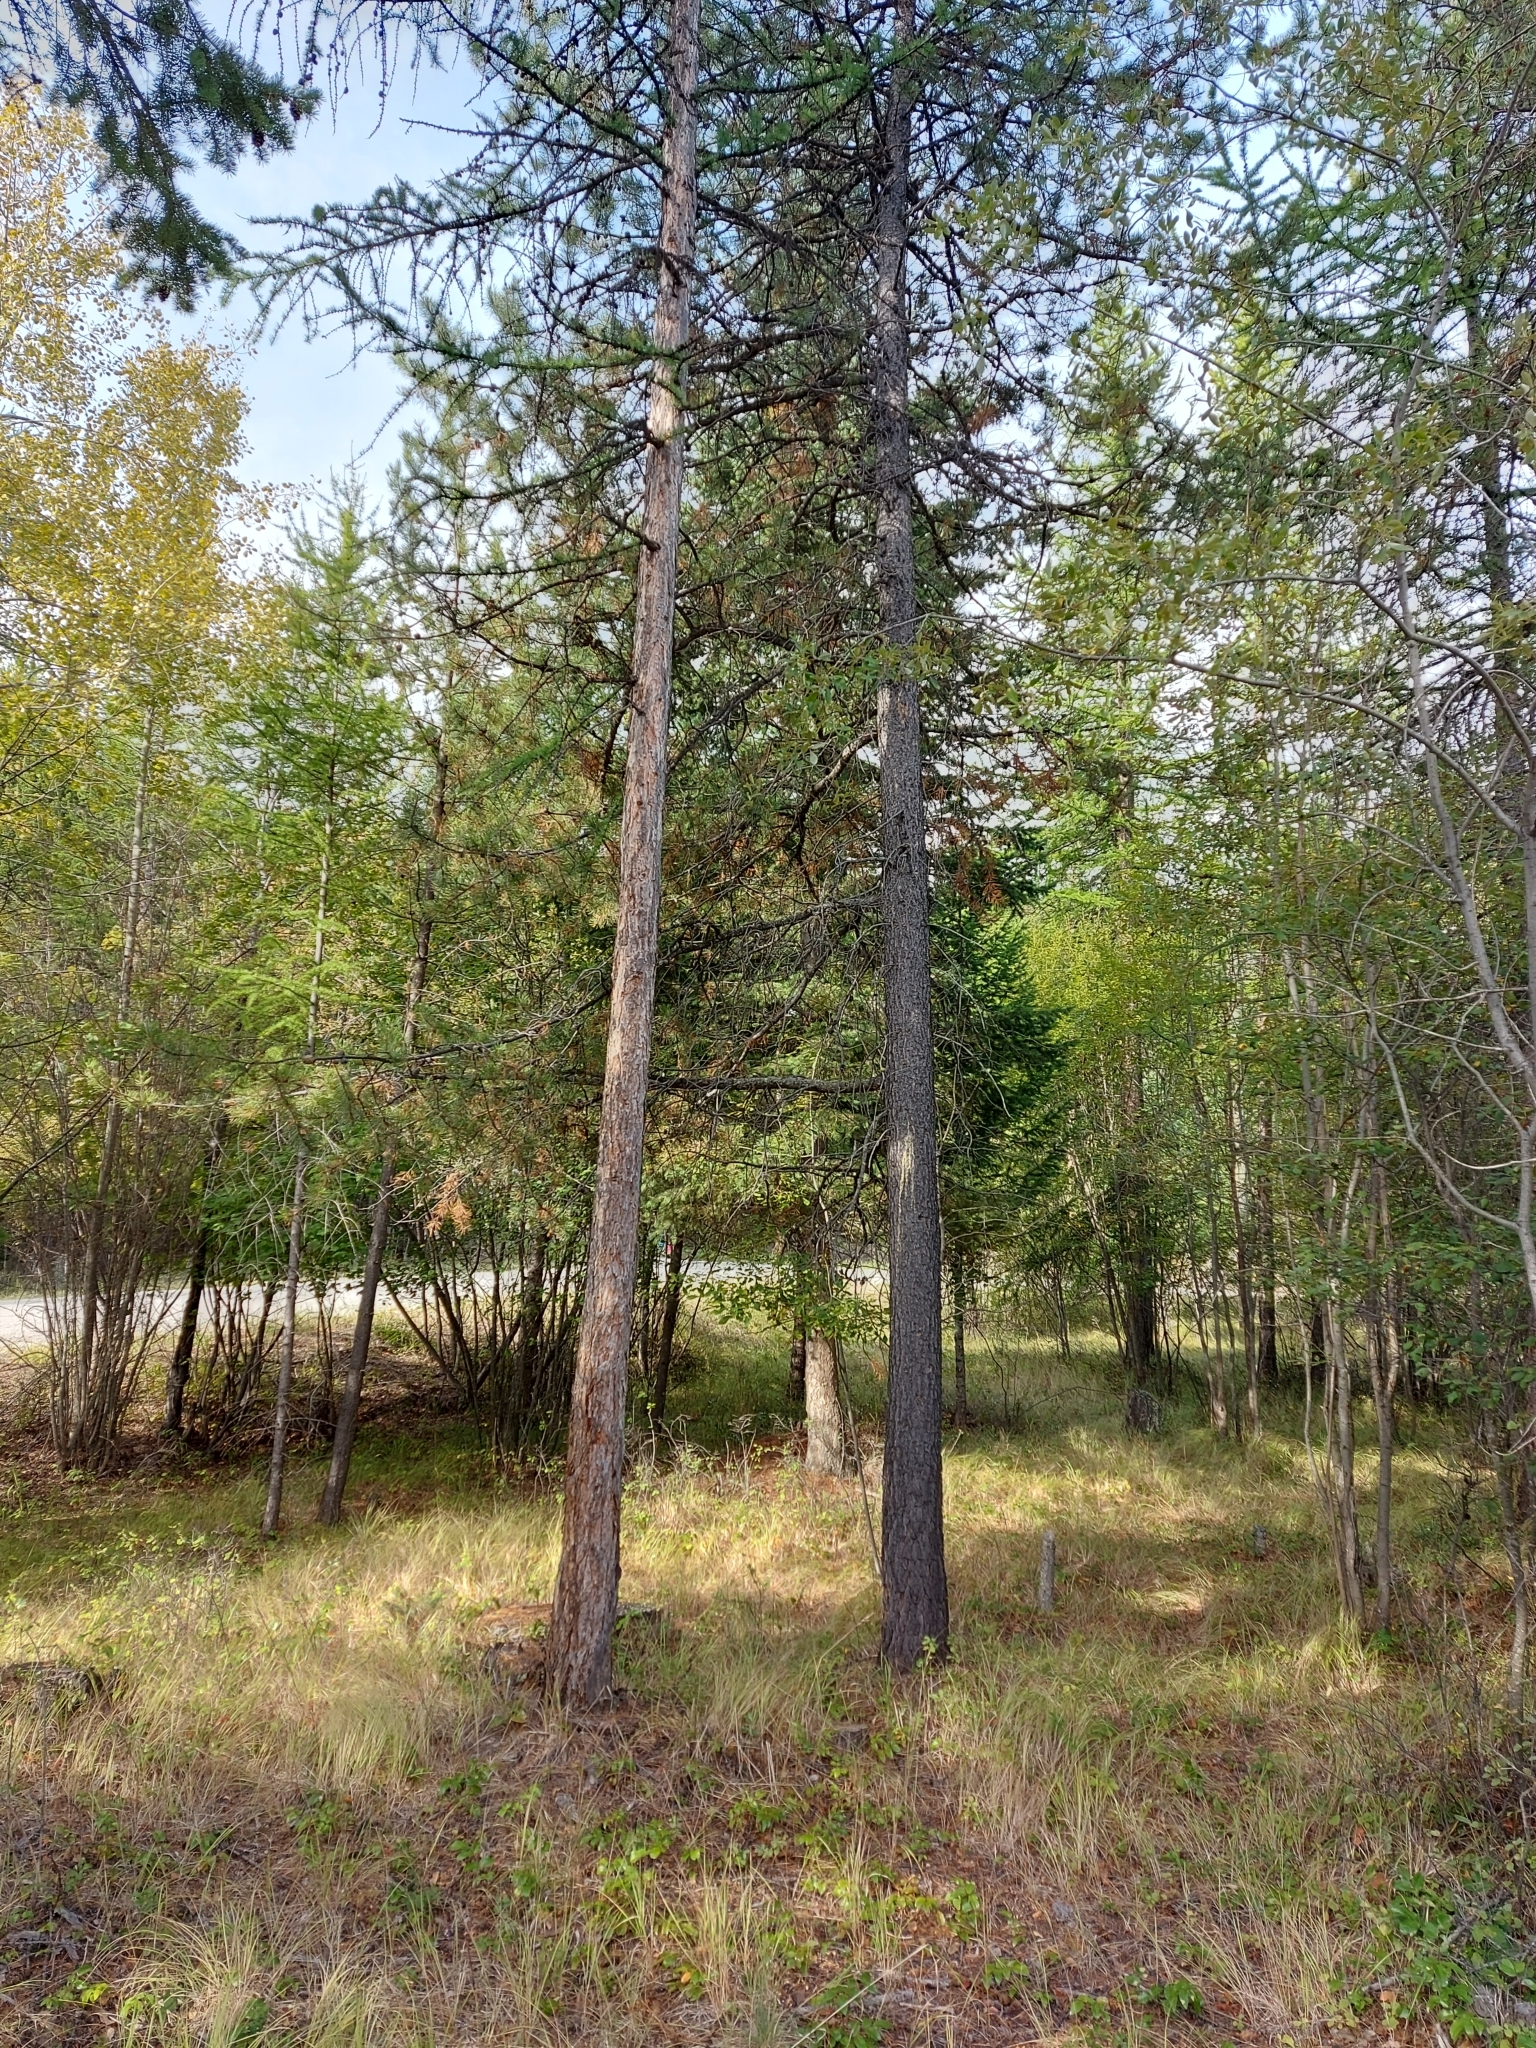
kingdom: Animalia
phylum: Chordata
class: Aves
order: Passeriformes
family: Vireonidae
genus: Vireo
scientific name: Vireo cassinii
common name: Cassin's vireo
